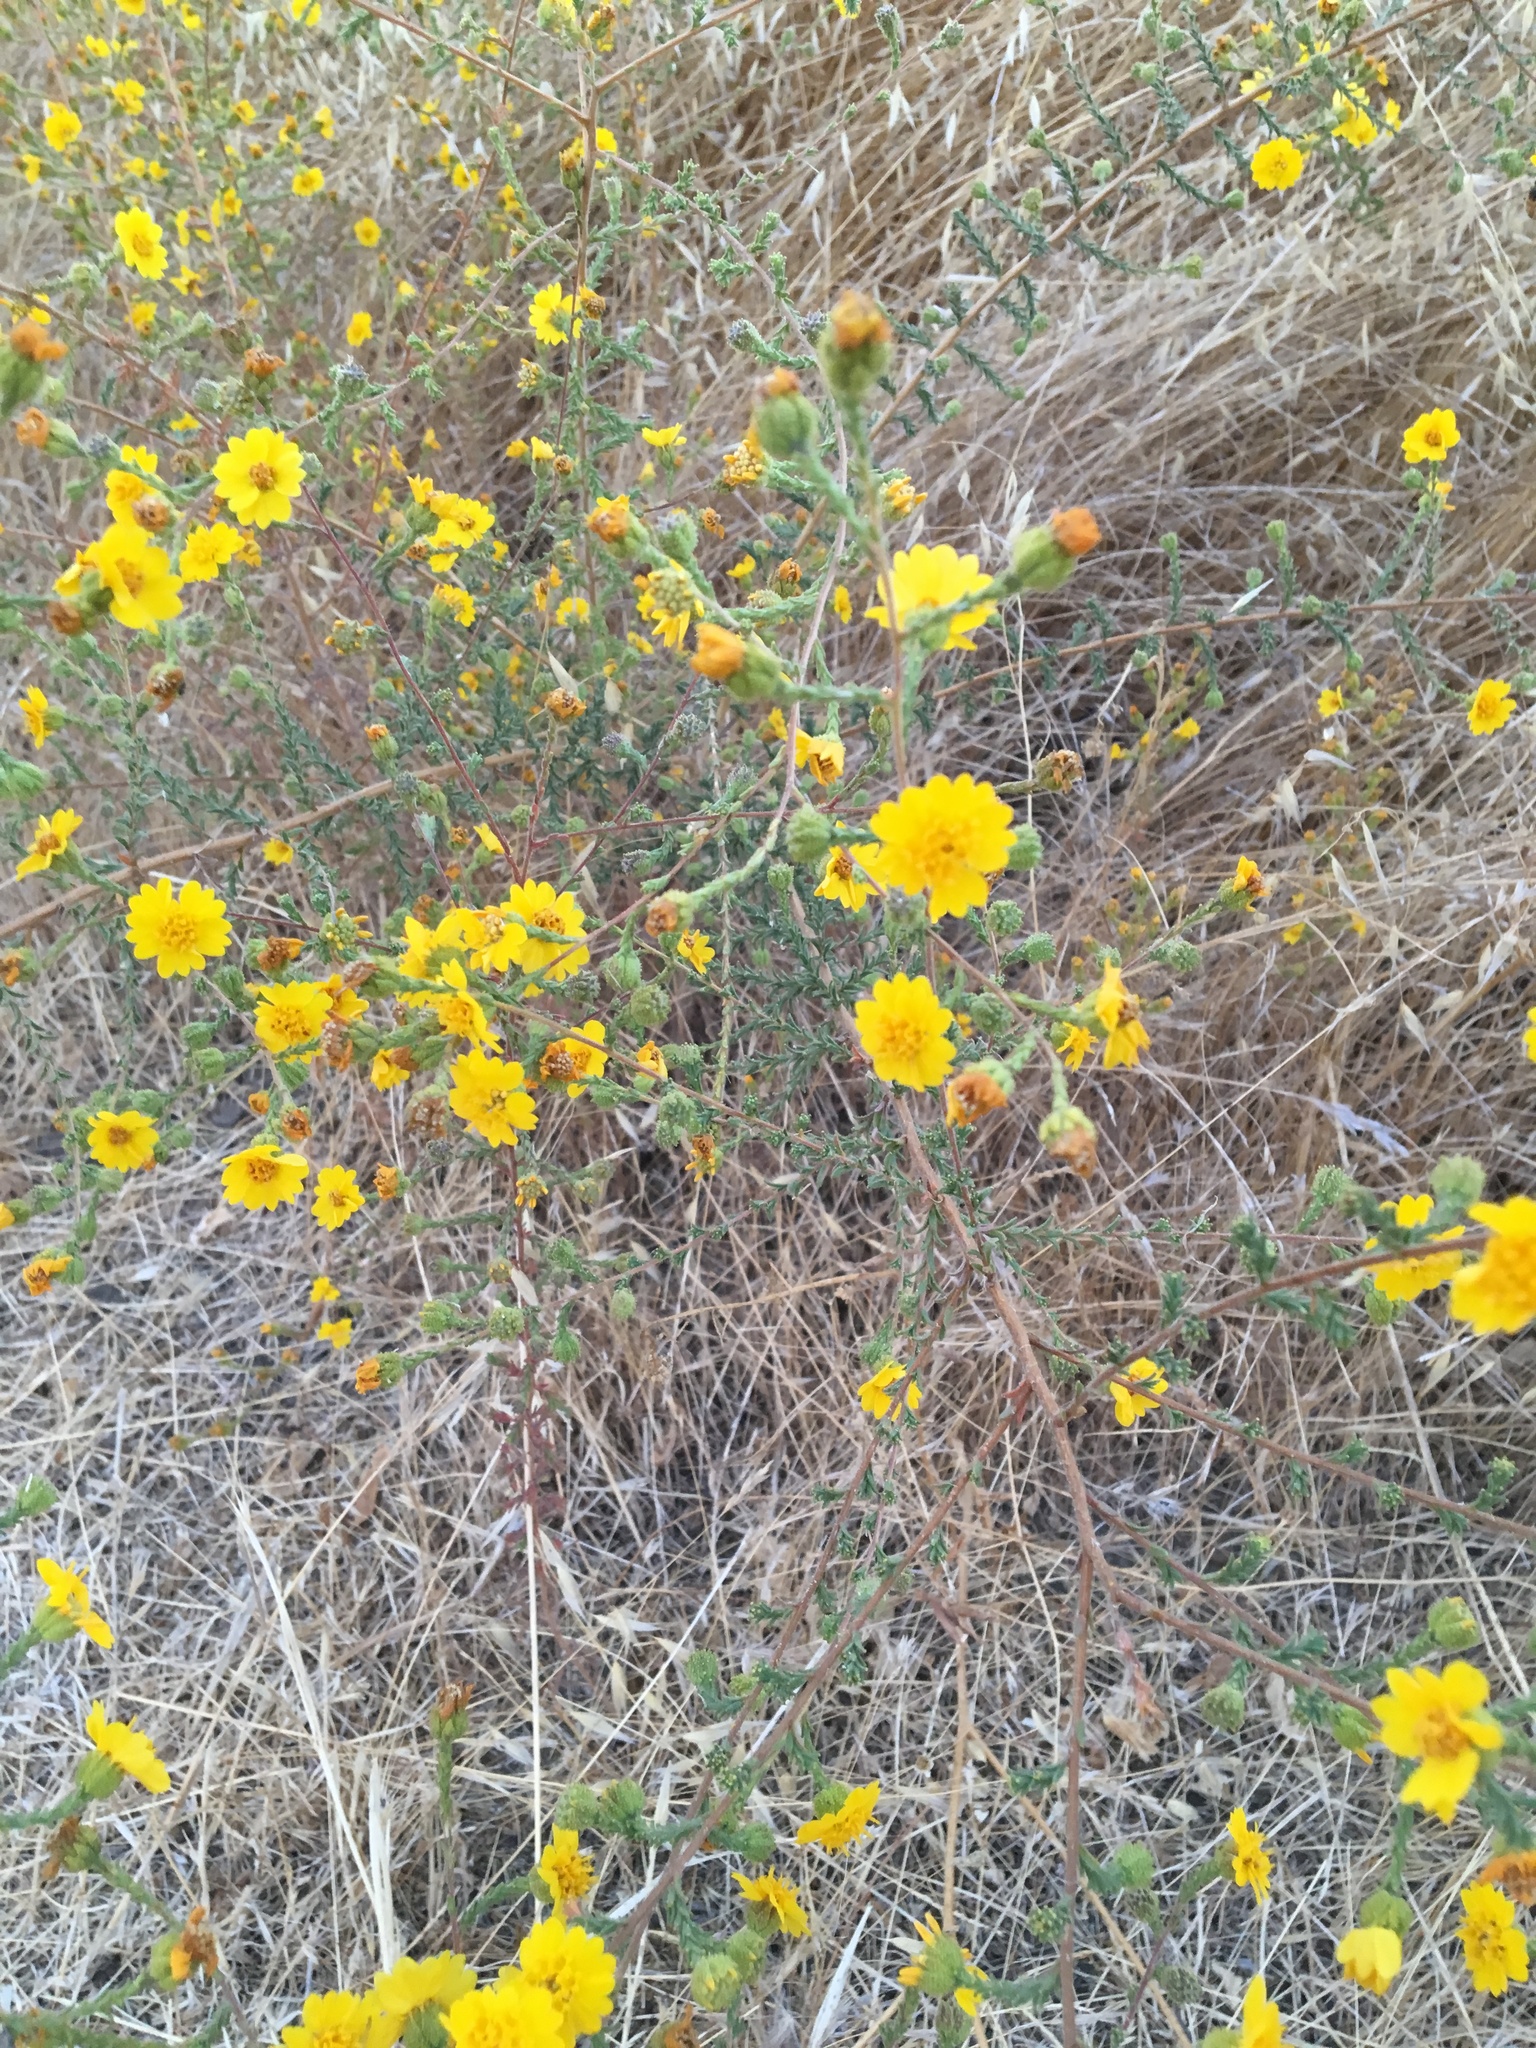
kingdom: Plantae
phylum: Tracheophyta
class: Magnoliopsida
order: Asterales
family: Asteraceae
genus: Holocarpha
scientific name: Holocarpha heermannii
